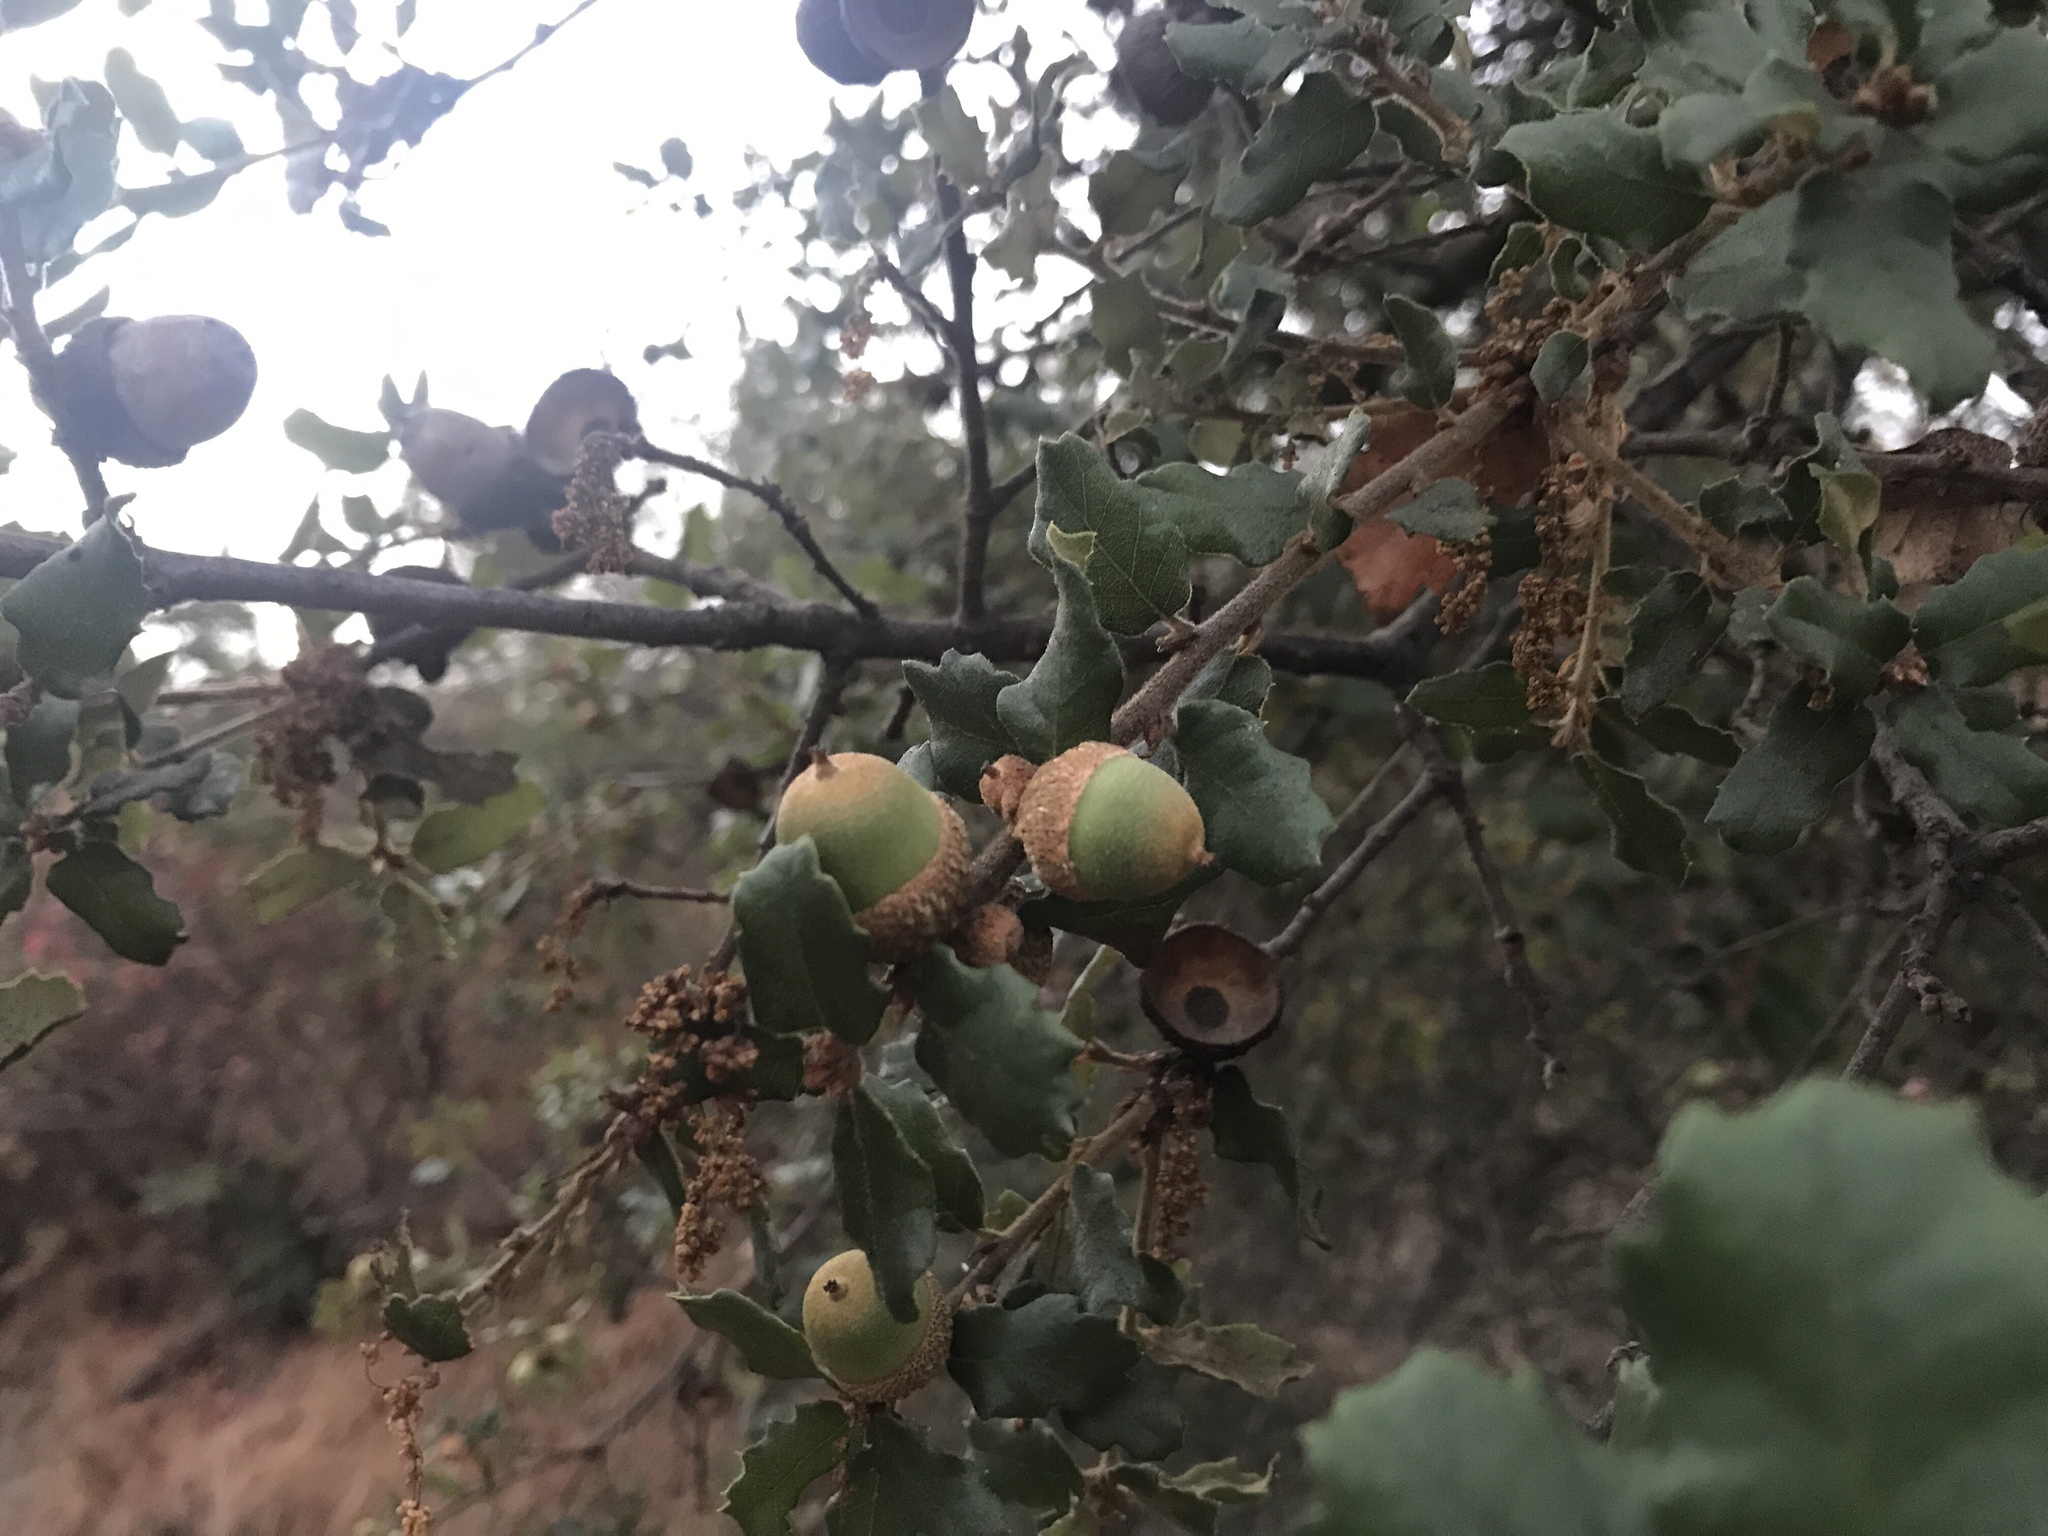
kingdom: Plantae
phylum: Tracheophyta
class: Magnoliopsida
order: Fagales
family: Fagaceae
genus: Quercus
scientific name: Quercus berberidifolia
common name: California scrub oak
